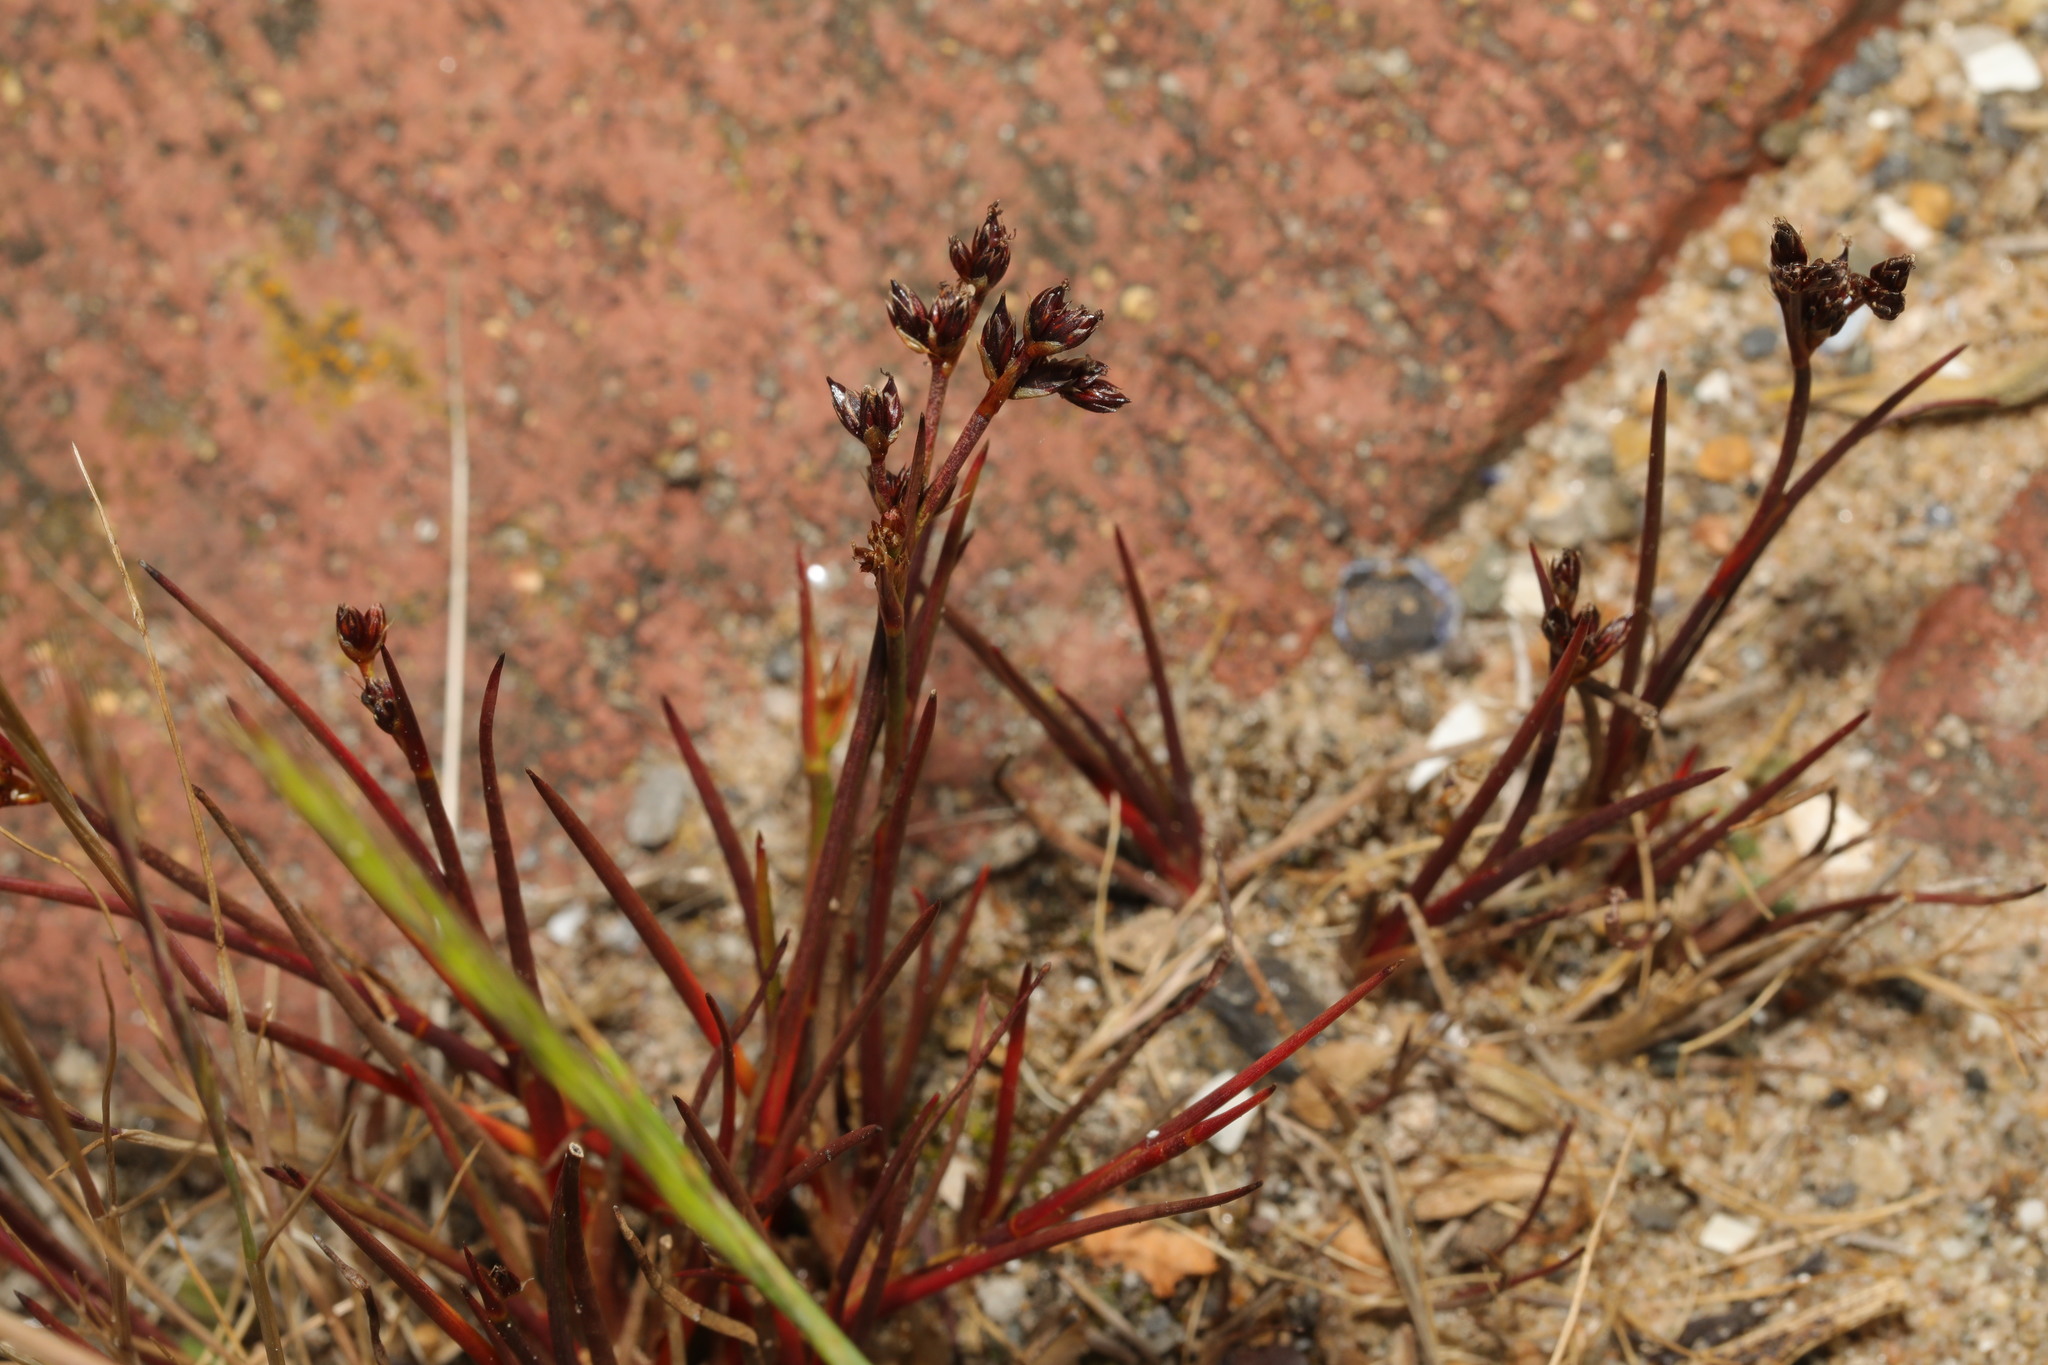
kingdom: Plantae
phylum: Tracheophyta
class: Liliopsida
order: Poales
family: Juncaceae
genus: Juncus
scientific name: Juncus articulatus
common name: Jointed rush
